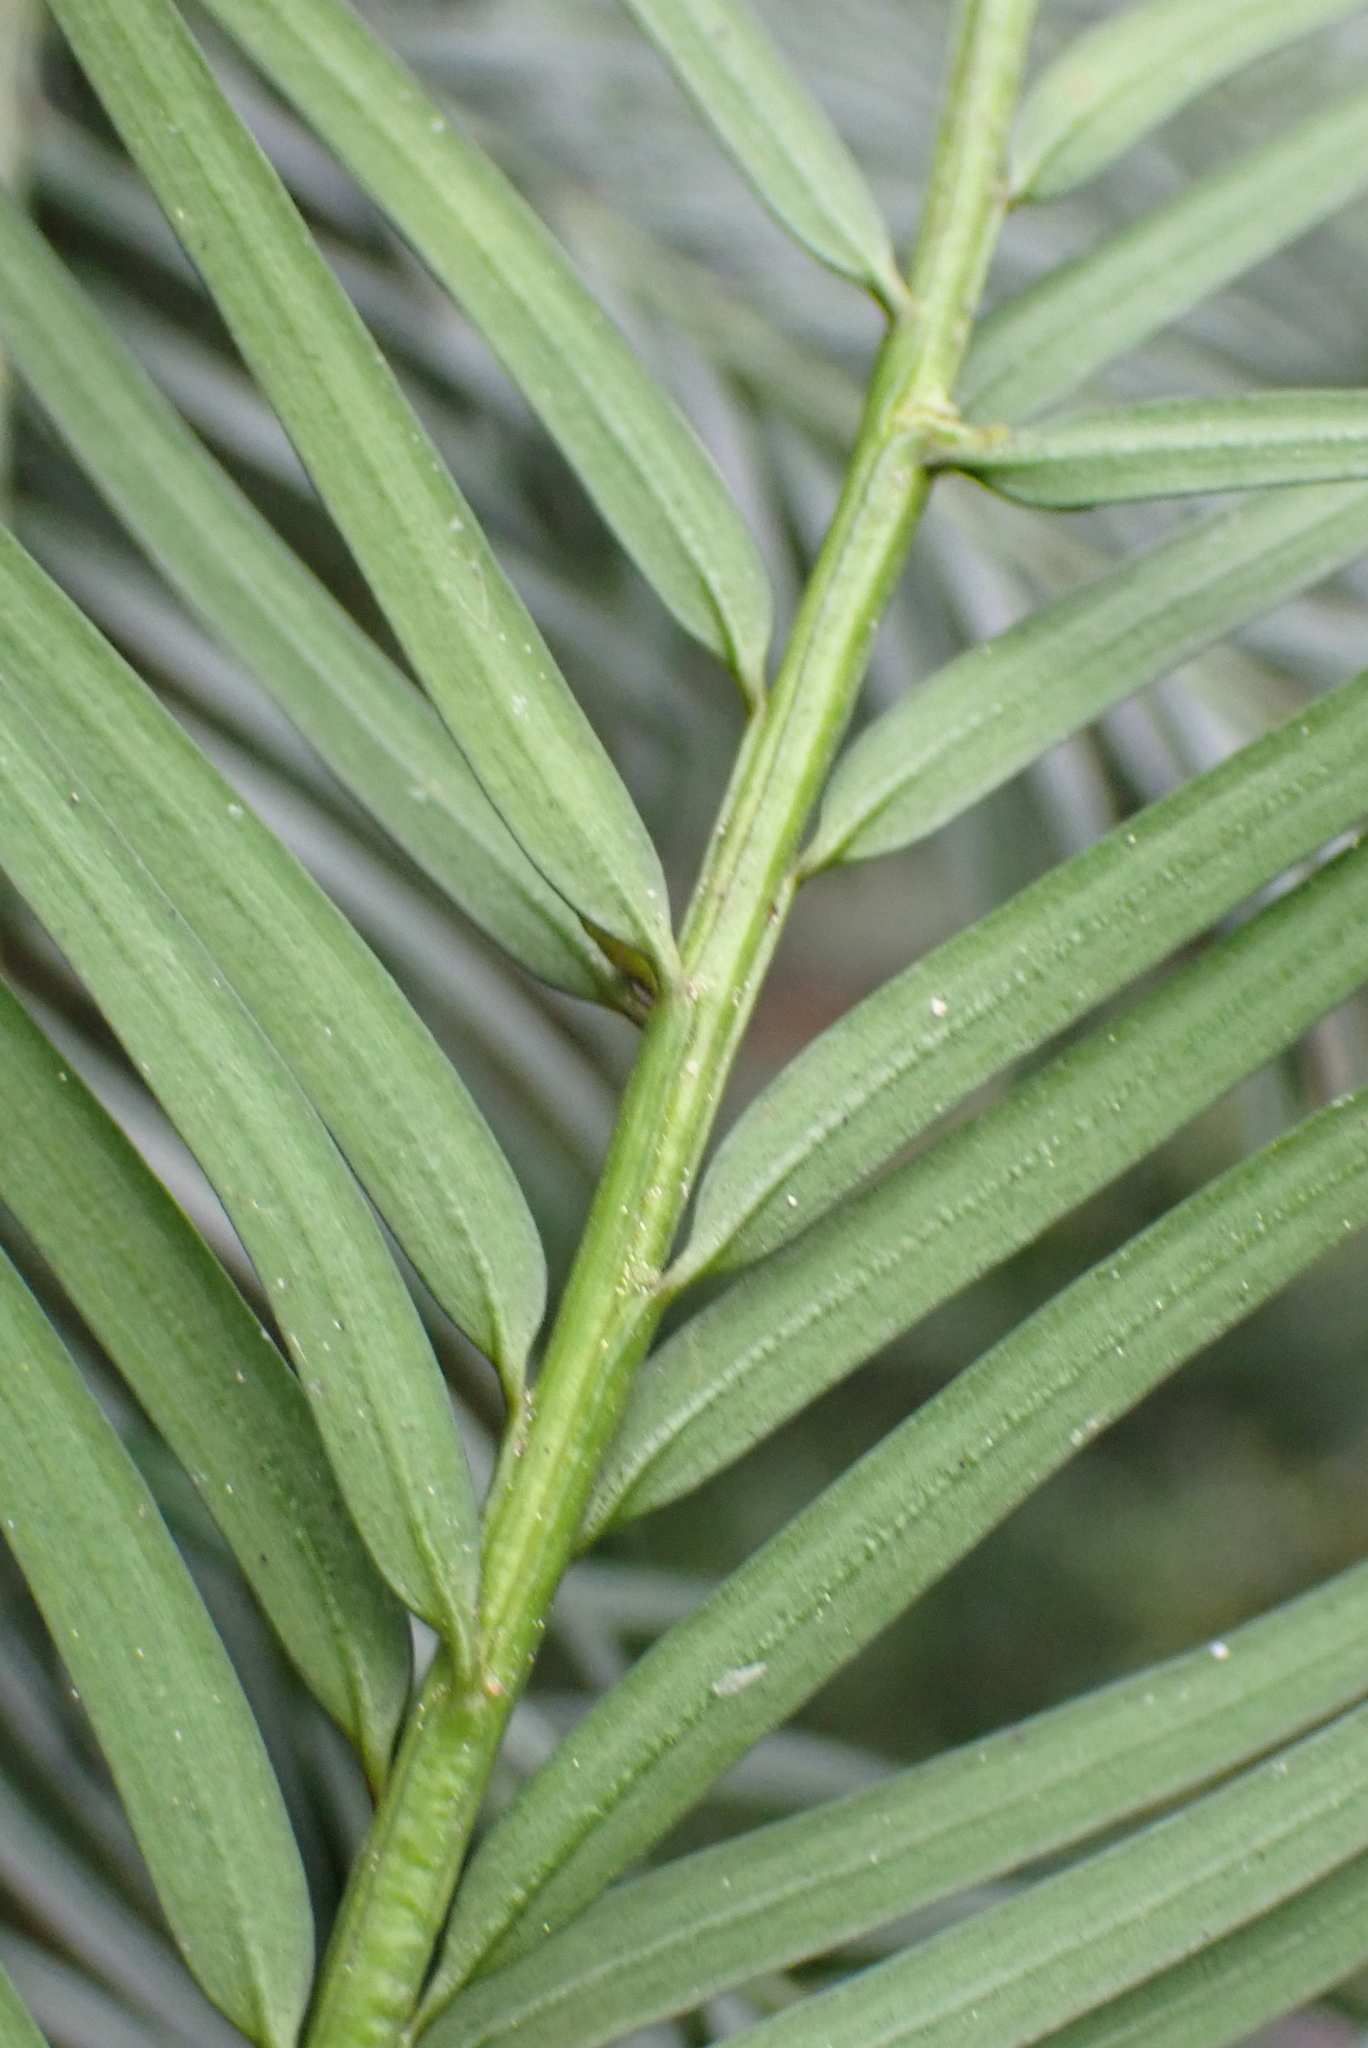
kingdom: Plantae
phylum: Tracheophyta
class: Pinopsida
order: Pinales
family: Taxaceae
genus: Taxus
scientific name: Taxus baccata
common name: Yew
